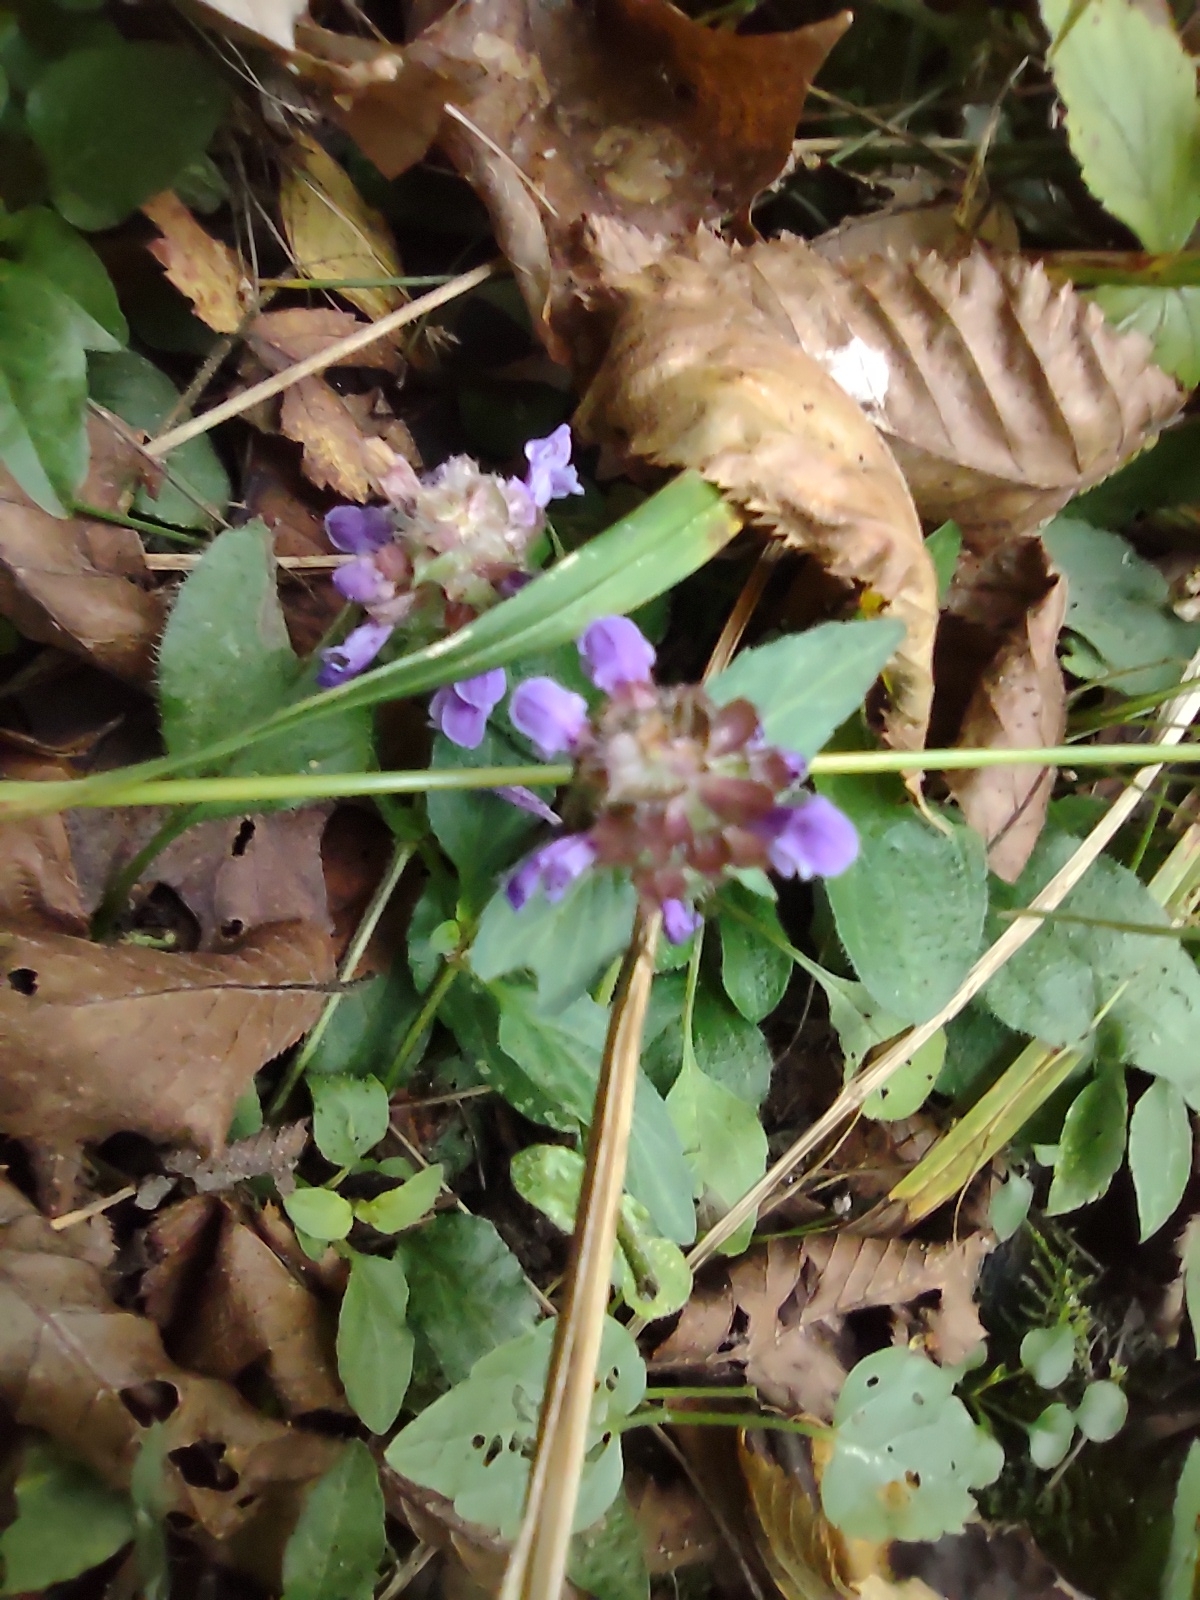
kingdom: Plantae
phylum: Tracheophyta
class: Magnoliopsida
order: Lamiales
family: Lamiaceae
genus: Prunella
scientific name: Prunella vulgaris
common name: Heal-all
